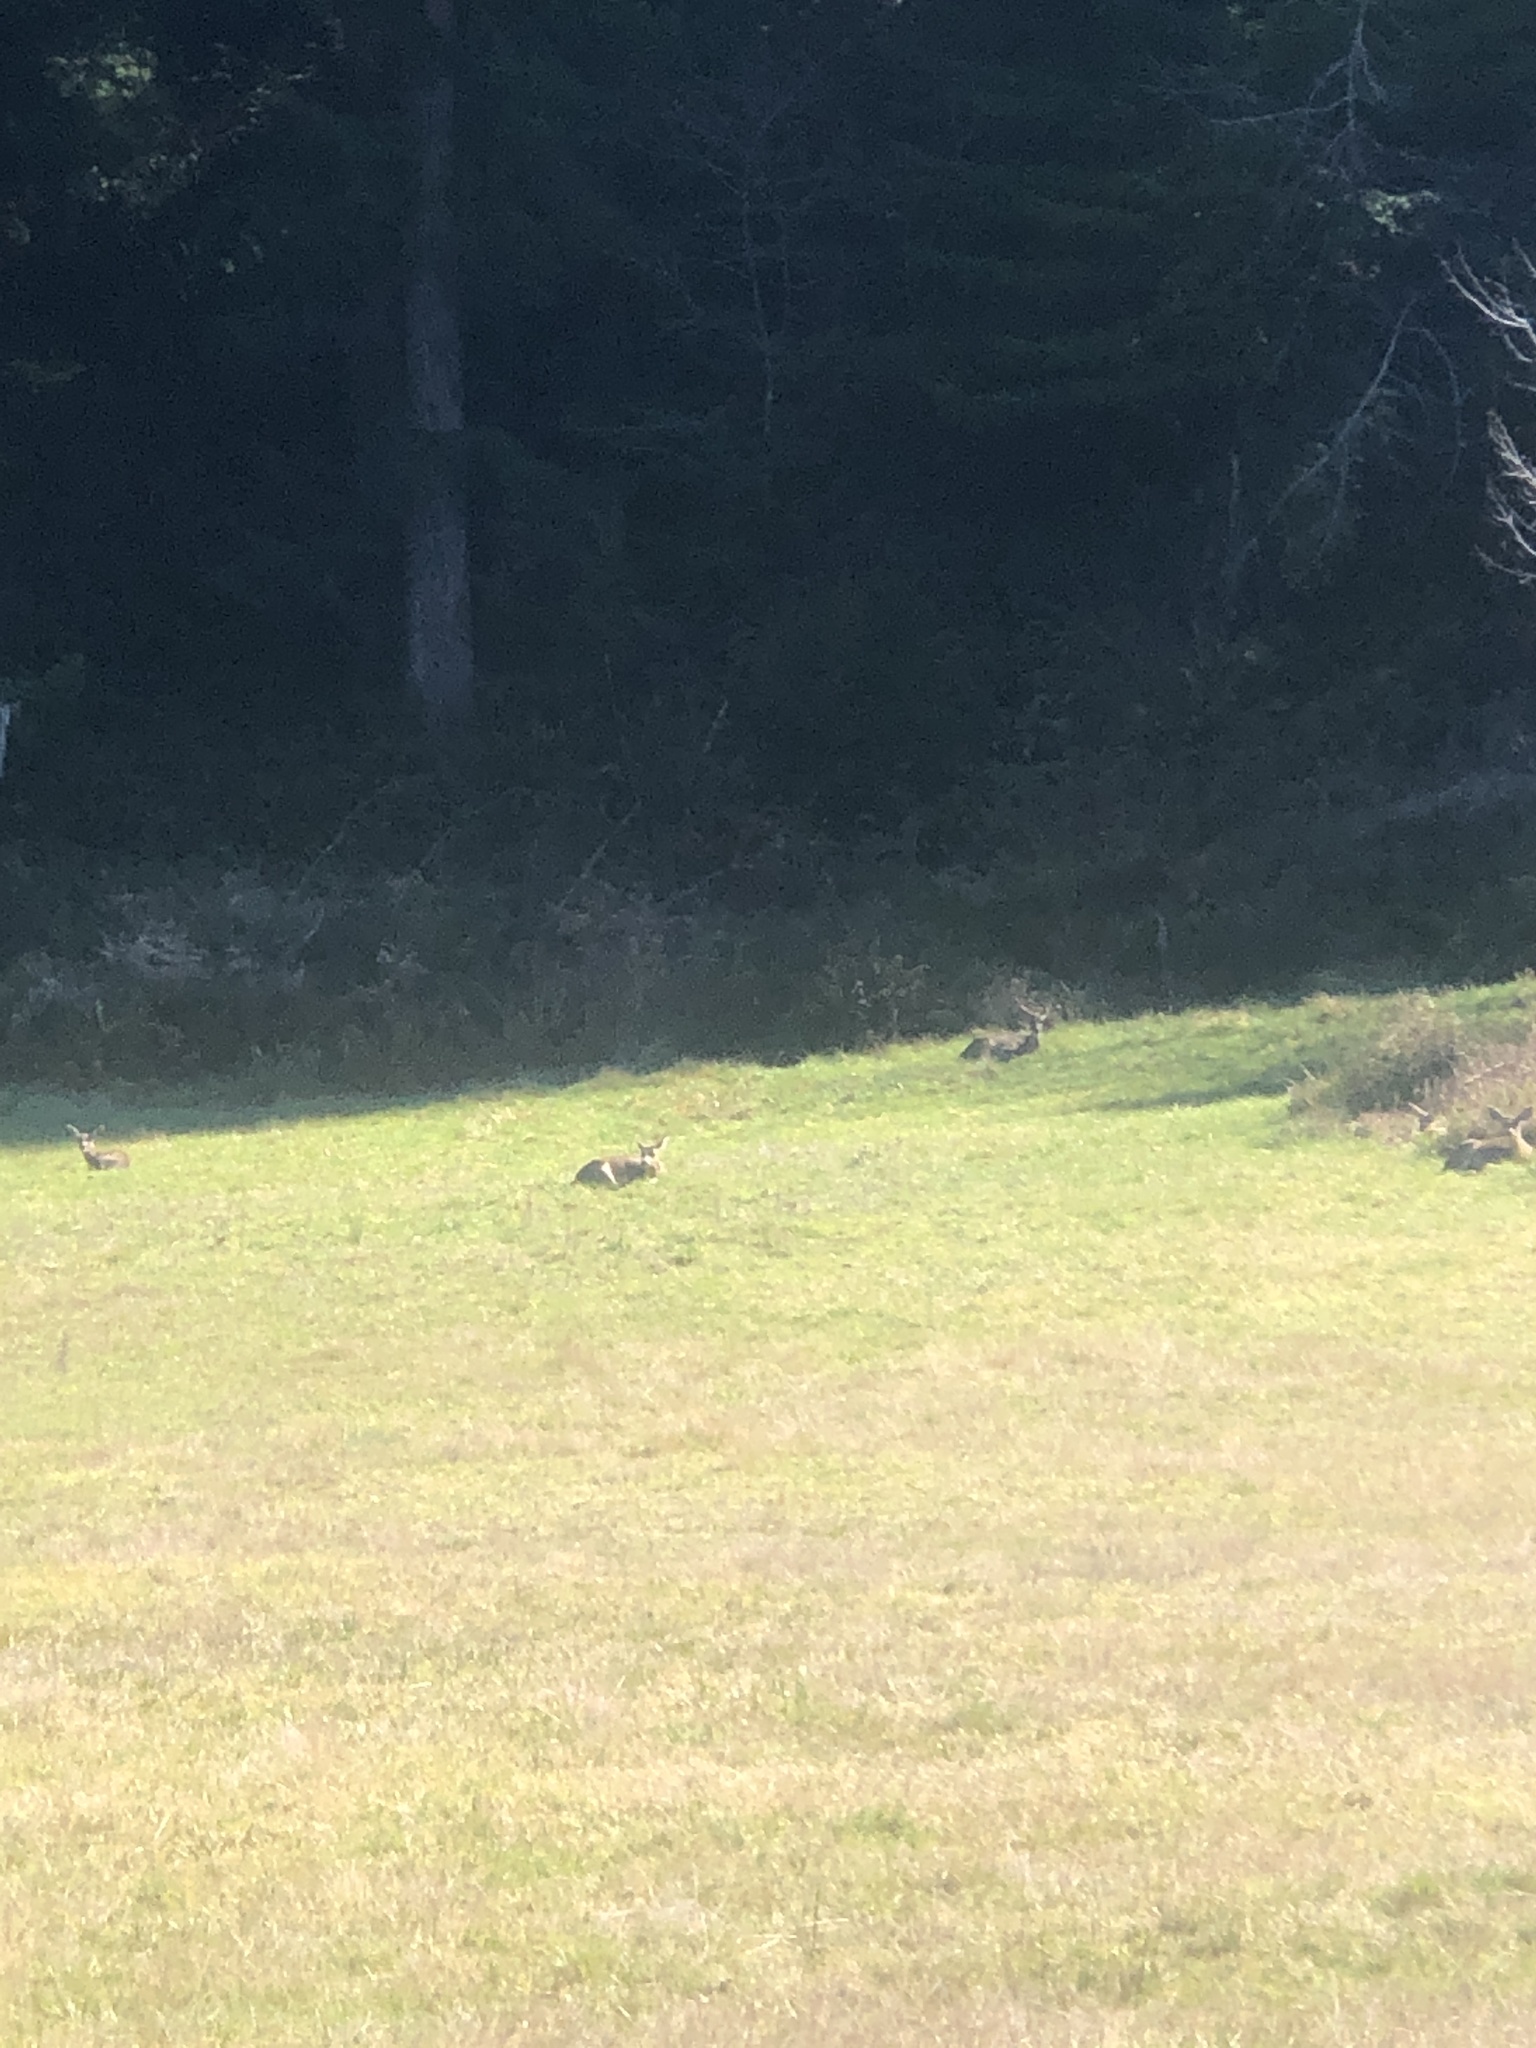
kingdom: Animalia
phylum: Chordata
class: Mammalia
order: Artiodactyla
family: Cervidae
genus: Odocoileus
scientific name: Odocoileus hemionus
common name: Mule deer
